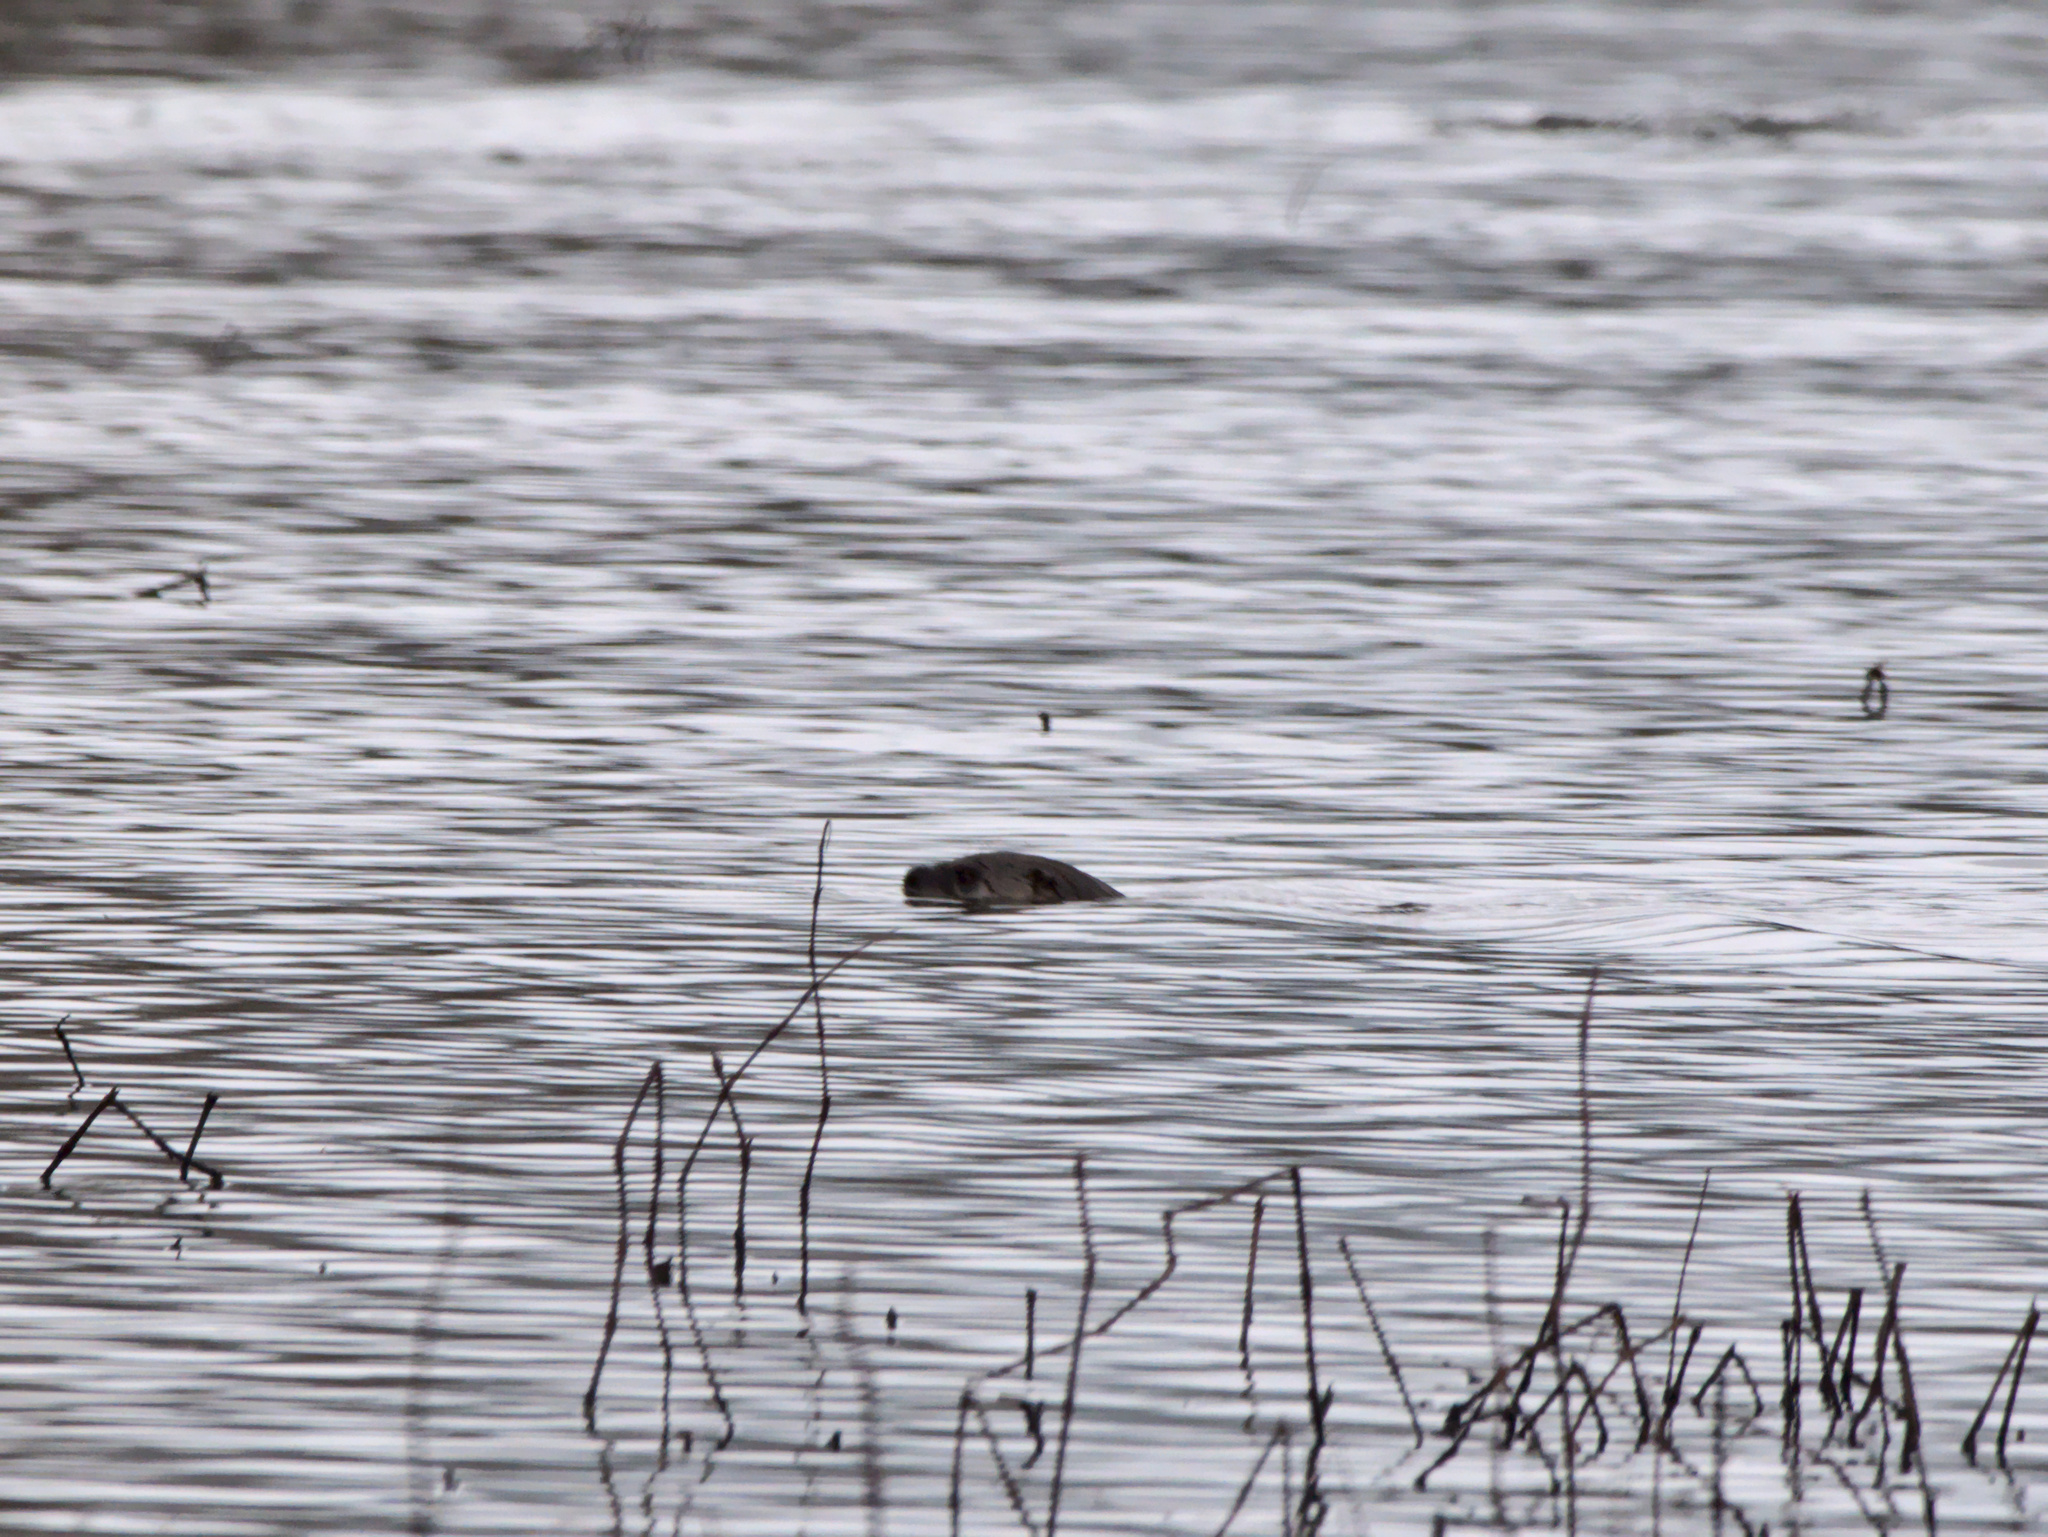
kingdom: Animalia
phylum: Chordata
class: Mammalia
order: Carnivora
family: Mustelidae
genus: Lontra
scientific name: Lontra canadensis
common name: North american river otter
